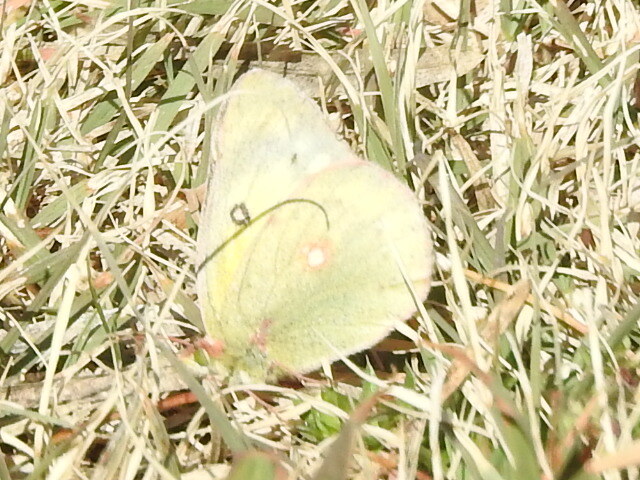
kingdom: Animalia
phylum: Arthropoda
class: Insecta
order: Lepidoptera
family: Pieridae
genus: Colias
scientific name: Colias eurytheme
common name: Alfalfa butterfly
